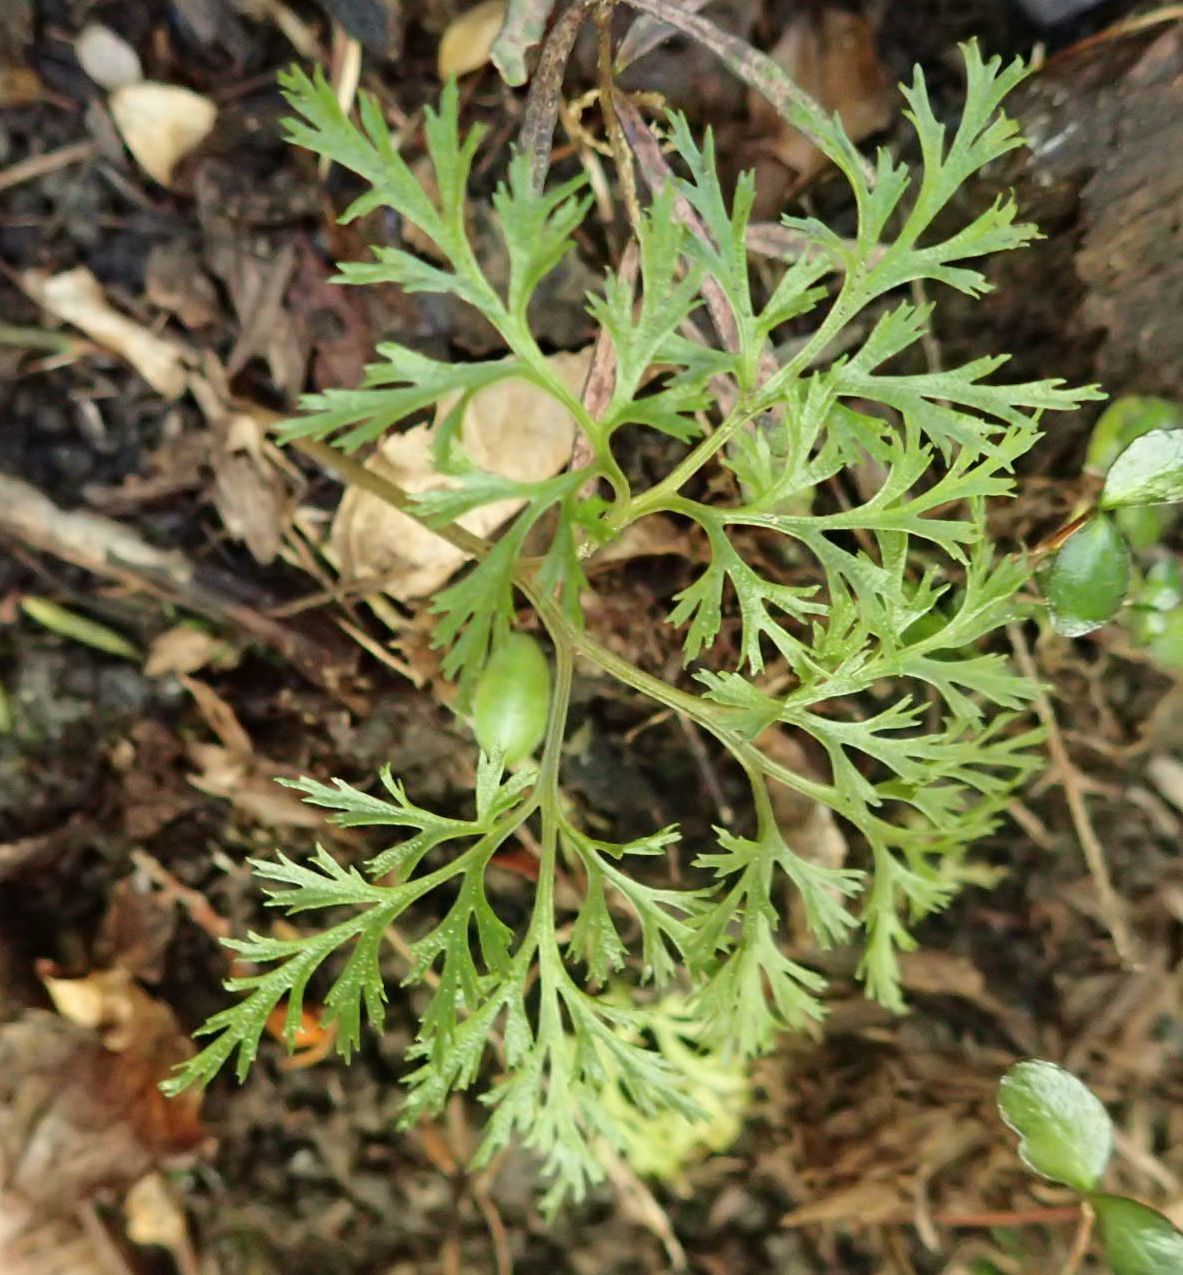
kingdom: Plantae
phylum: Tracheophyta
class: Polypodiopsida
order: Ophioglossales
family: Ophioglossaceae
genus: Sceptridium
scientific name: Sceptridium biforme
